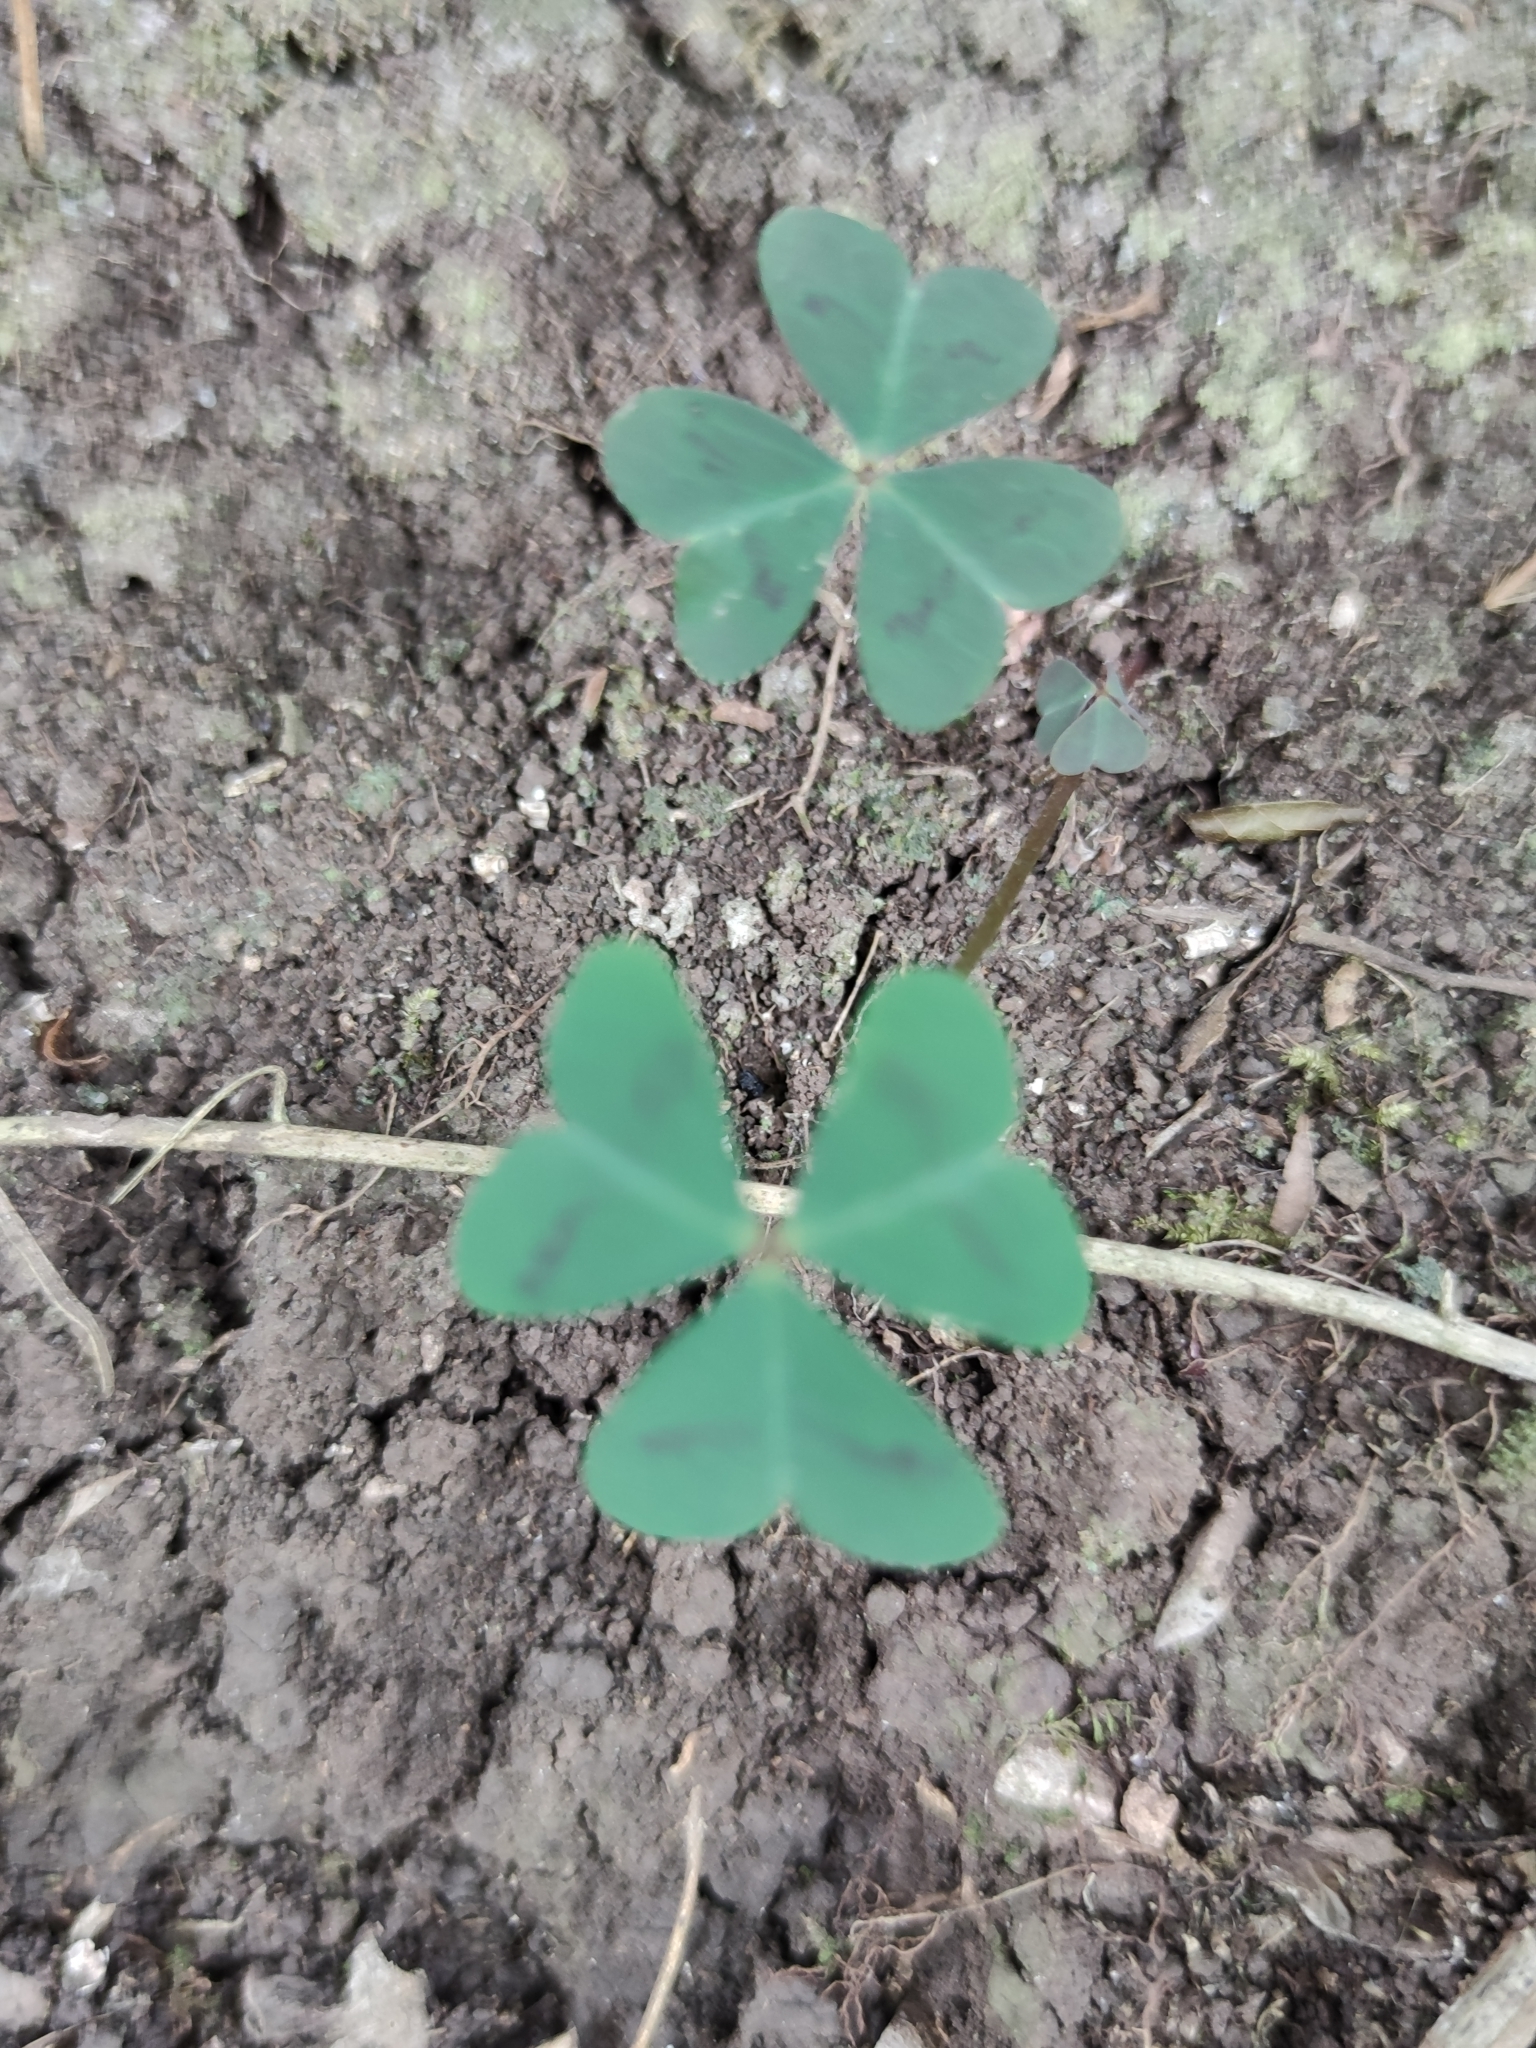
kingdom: Plantae
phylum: Tracheophyta
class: Magnoliopsida
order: Oxalidales
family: Oxalidaceae
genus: Oxalis
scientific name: Oxalis latifolia
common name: Garden pink-sorrel
